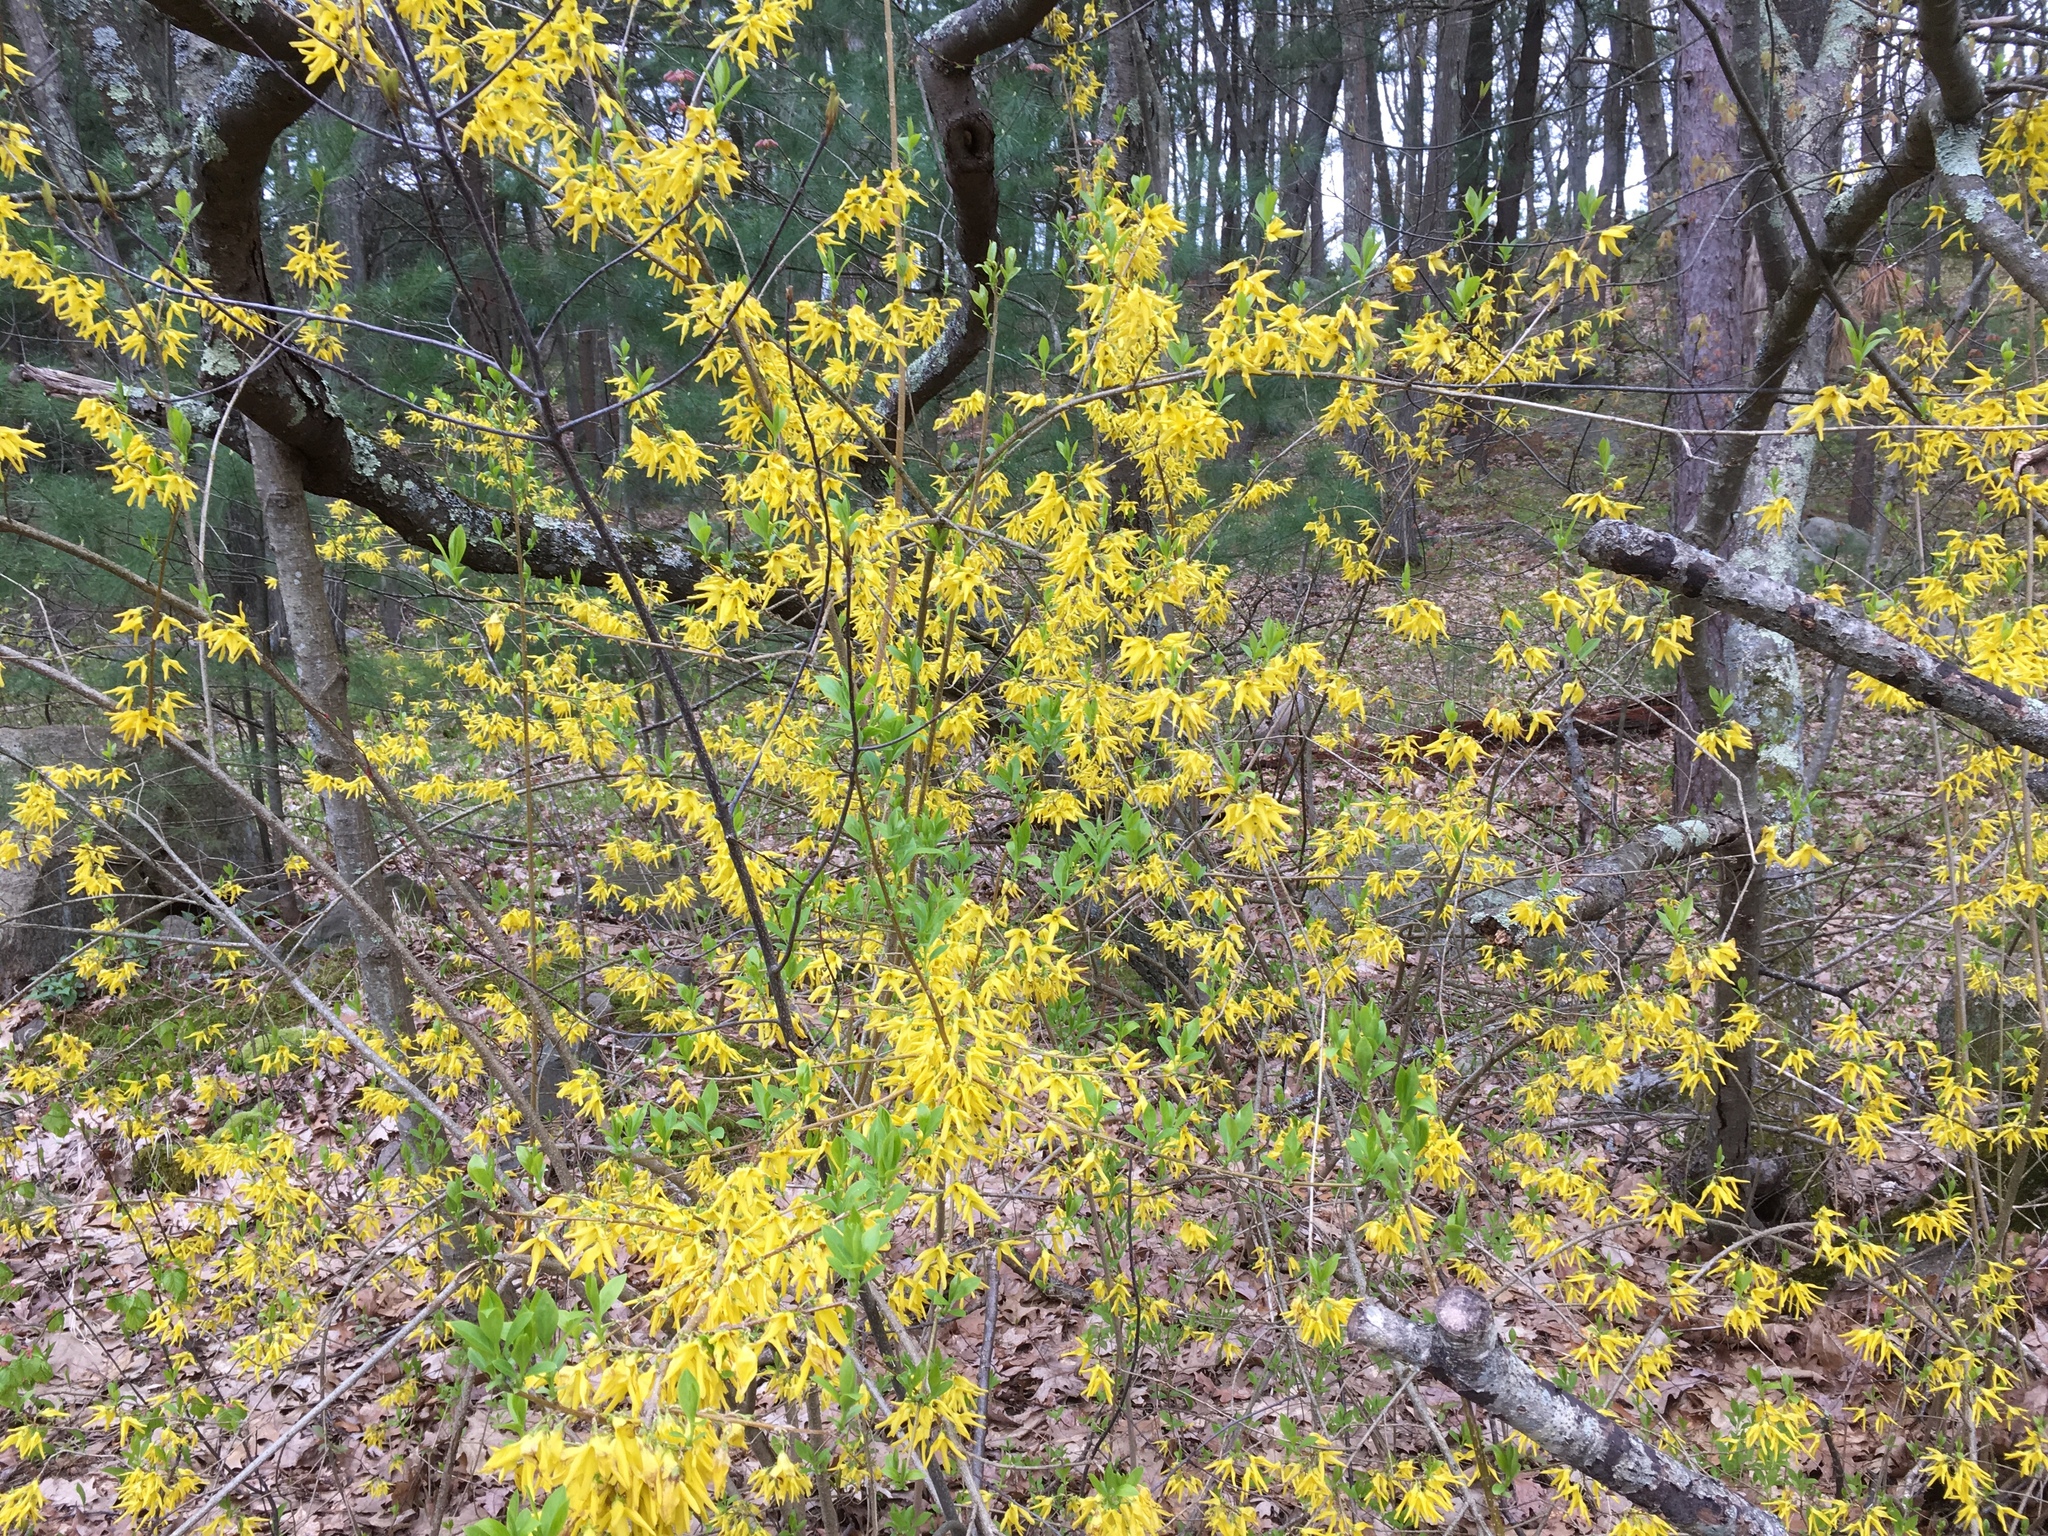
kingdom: Plantae
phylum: Tracheophyta
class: Magnoliopsida
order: Lamiales
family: Oleaceae
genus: Forsythia
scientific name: Forsythia
